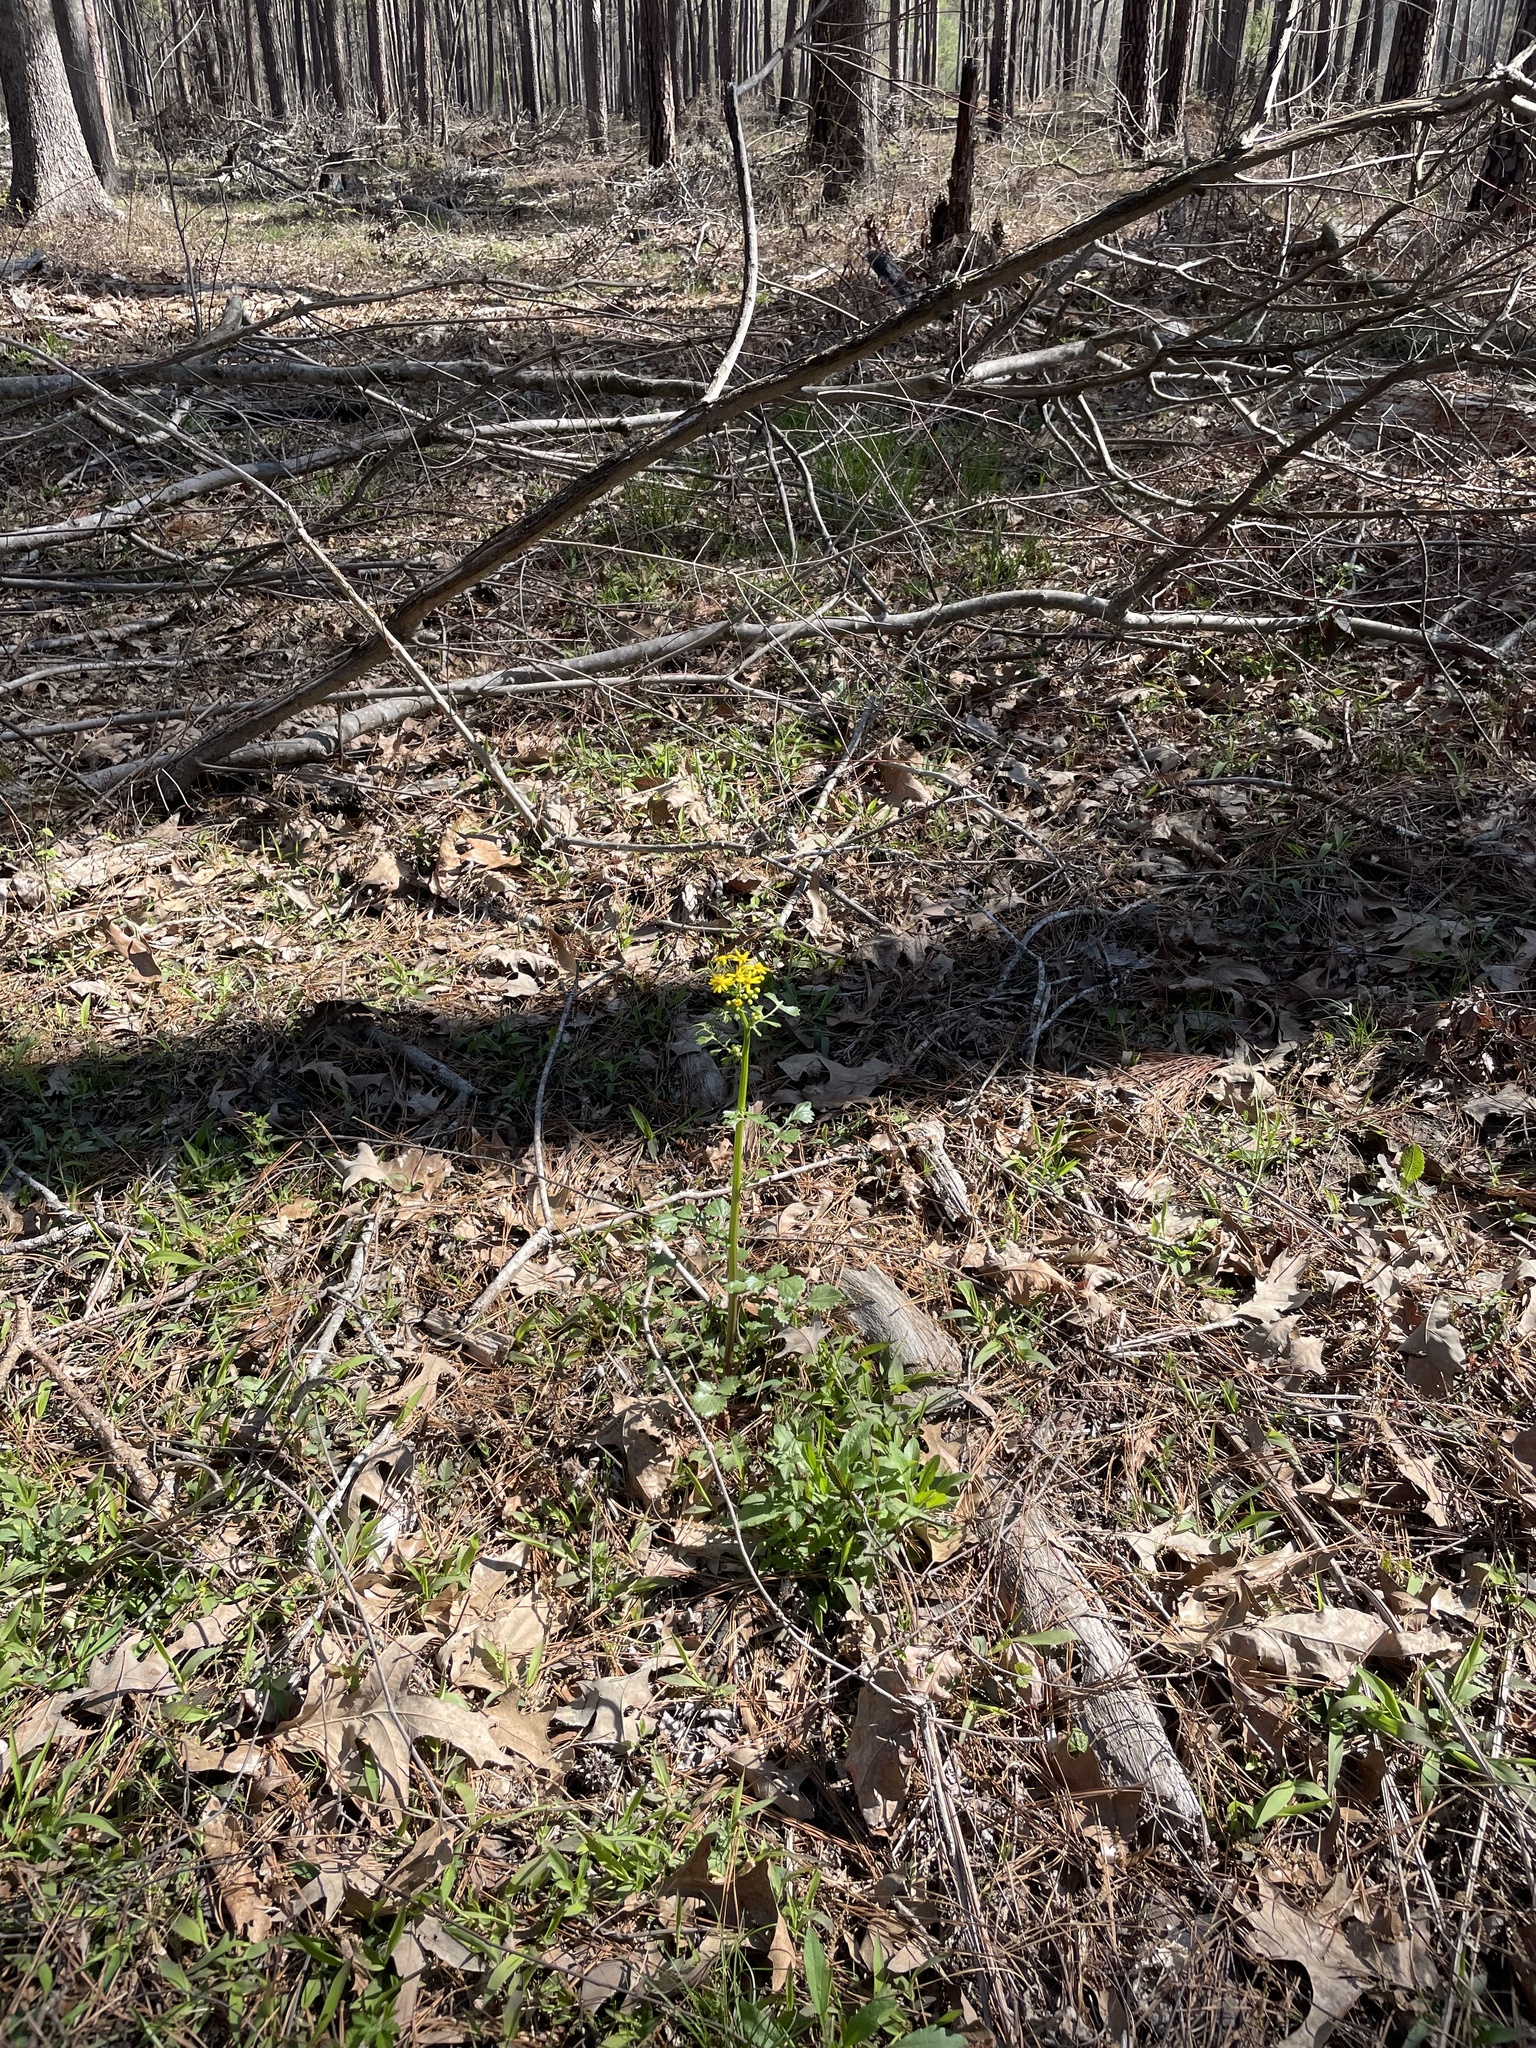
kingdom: Plantae
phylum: Tracheophyta
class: Magnoliopsida
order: Asterales
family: Asteraceae
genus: Packera
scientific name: Packera glabella
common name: Butterweed
